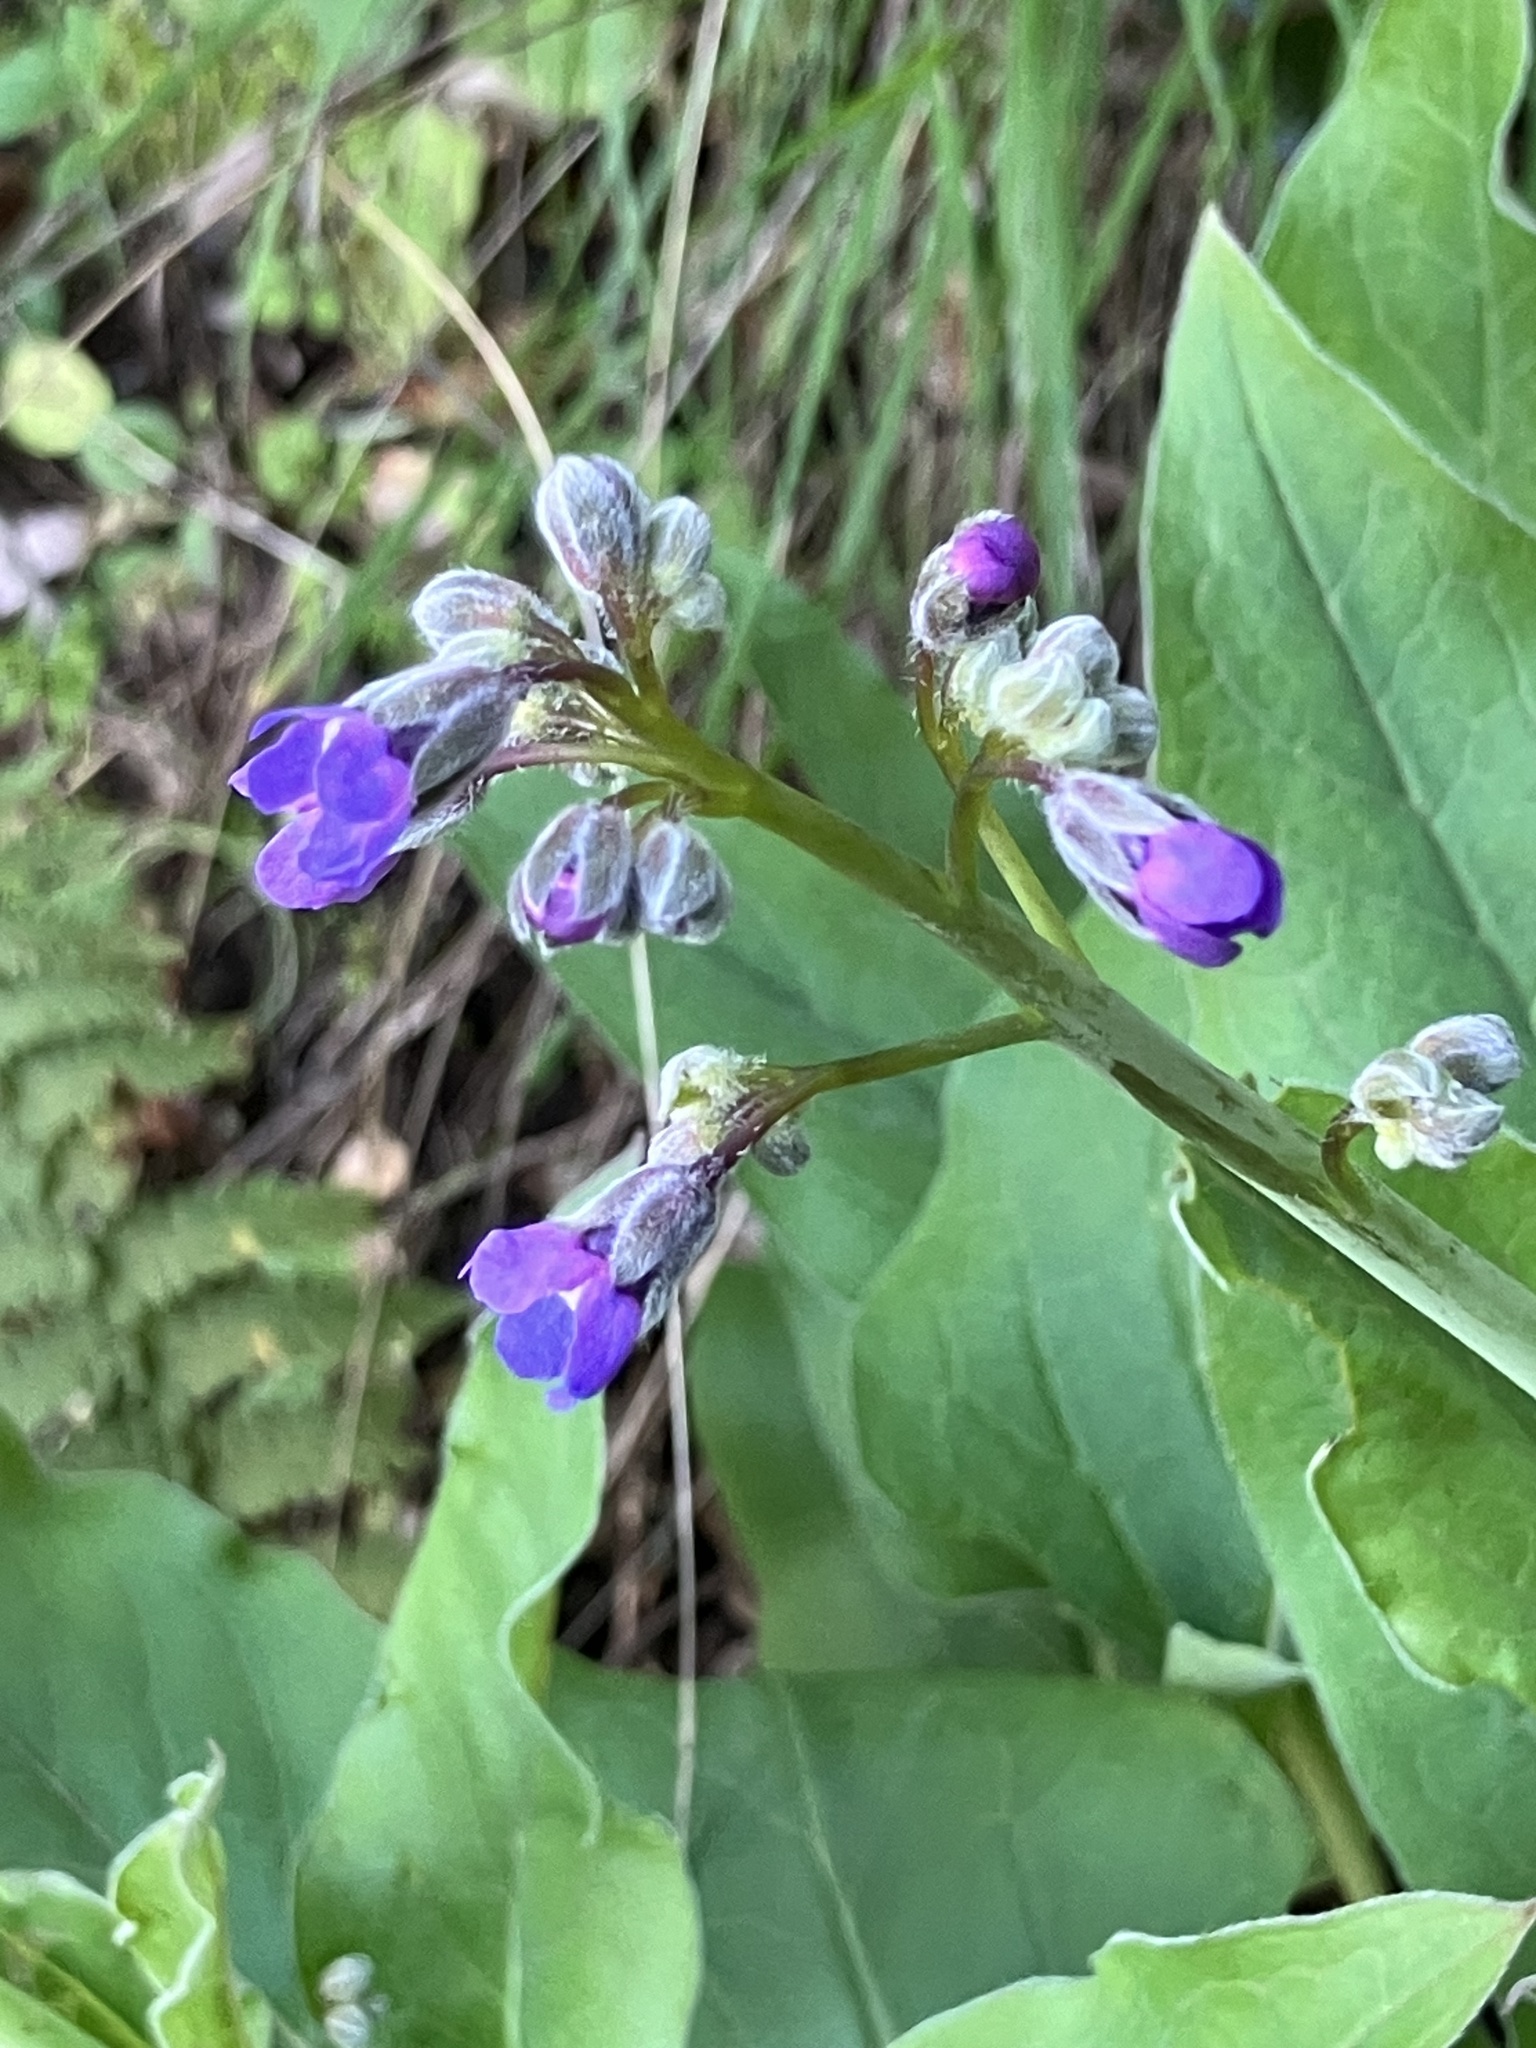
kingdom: Plantae
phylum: Tracheophyta
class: Magnoliopsida
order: Boraginales
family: Boraginaceae
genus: Adelinia
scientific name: Adelinia grande
